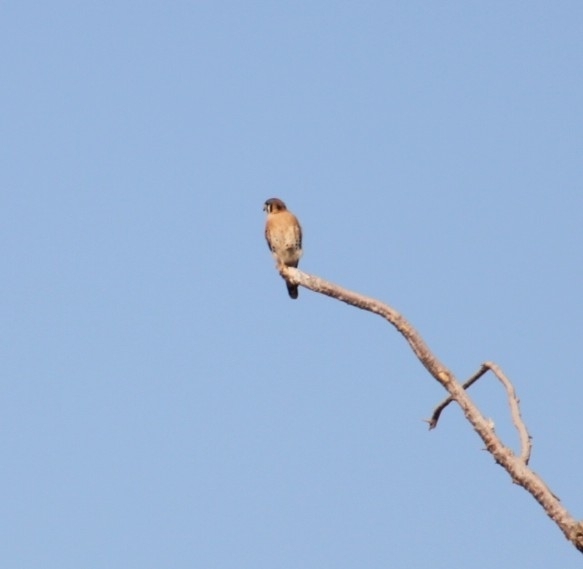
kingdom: Animalia
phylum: Chordata
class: Aves
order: Falconiformes
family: Falconidae
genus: Falco
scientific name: Falco sparverius
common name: American kestrel
